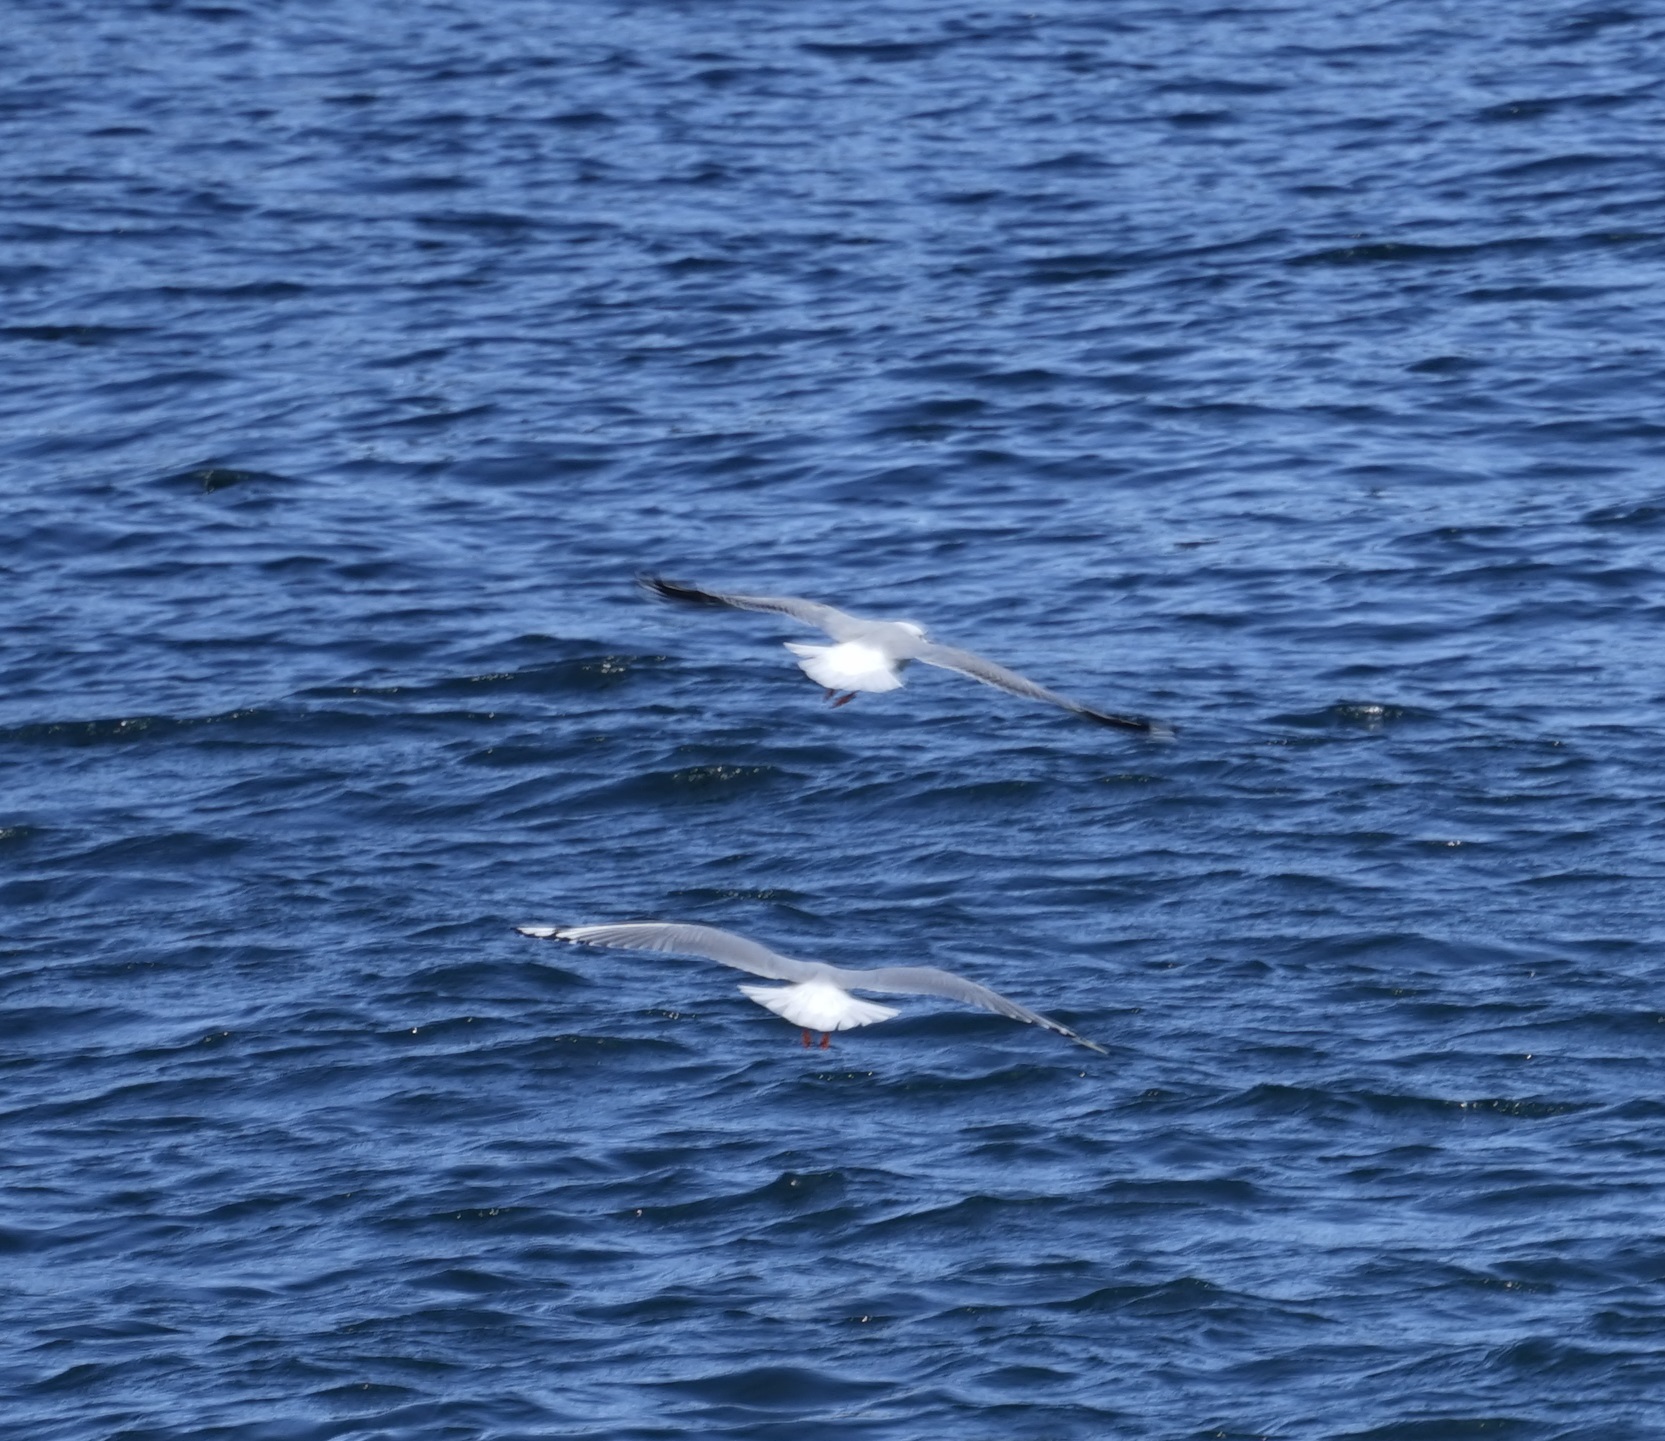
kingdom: Animalia
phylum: Chordata
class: Aves
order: Charadriiformes
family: Laridae
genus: Chroicocephalus
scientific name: Chroicocephalus novaehollandiae
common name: Silver gull
